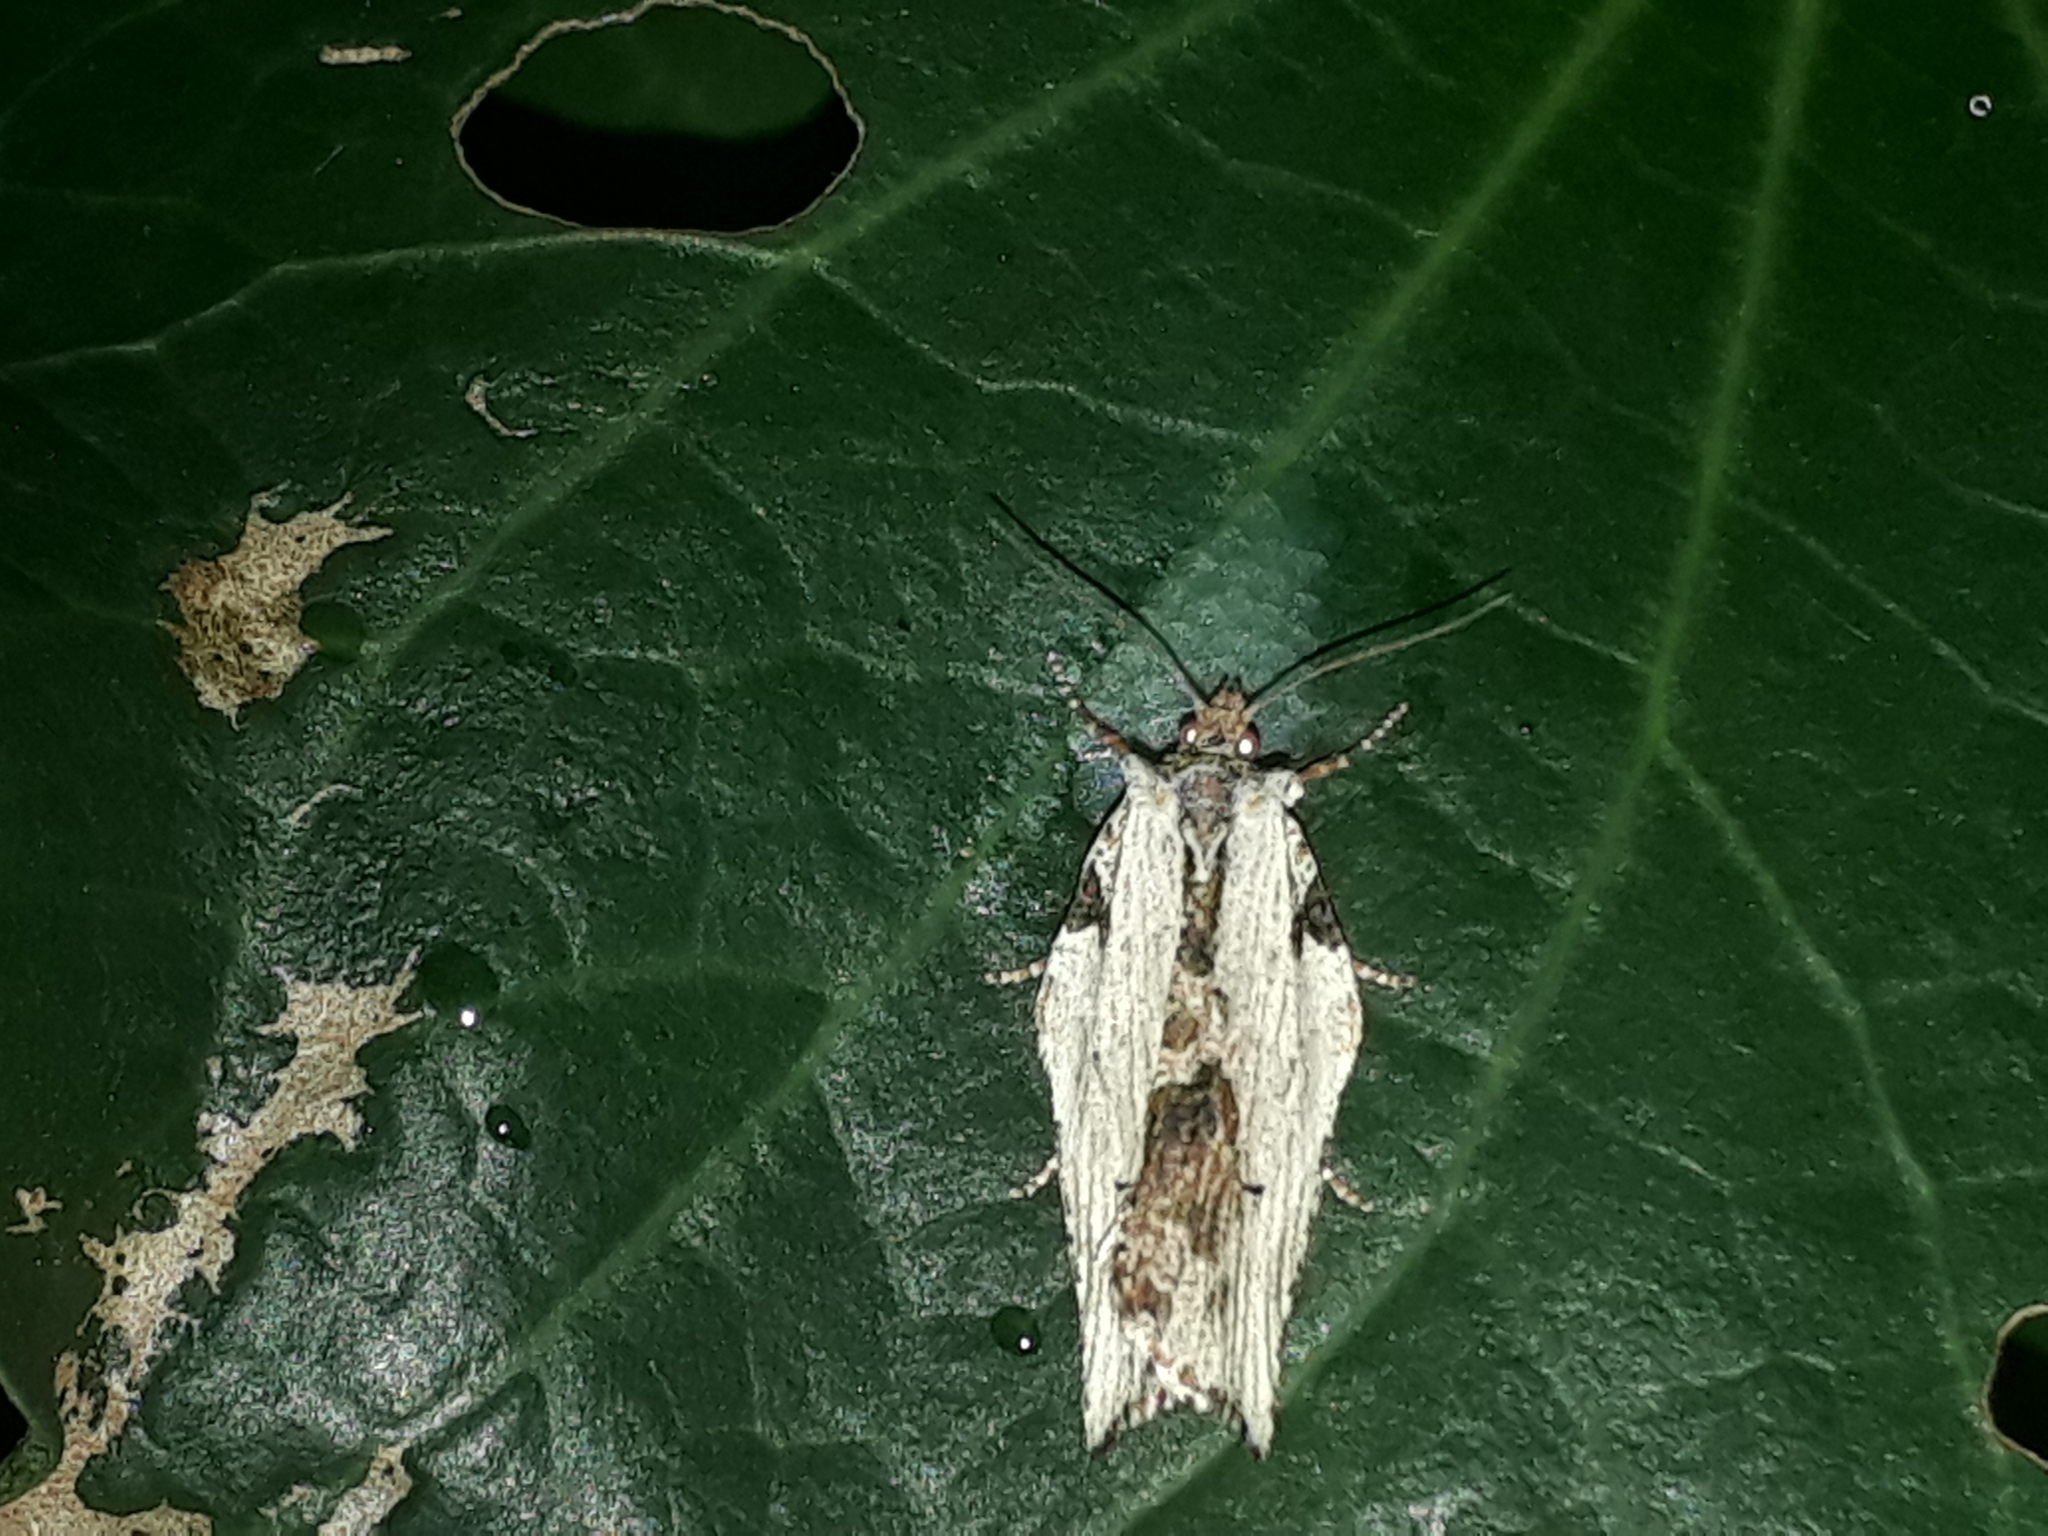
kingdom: Animalia
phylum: Arthropoda
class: Insecta
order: Lepidoptera
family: Tortricidae
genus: Epalxiphora
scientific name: Epalxiphora axenana
